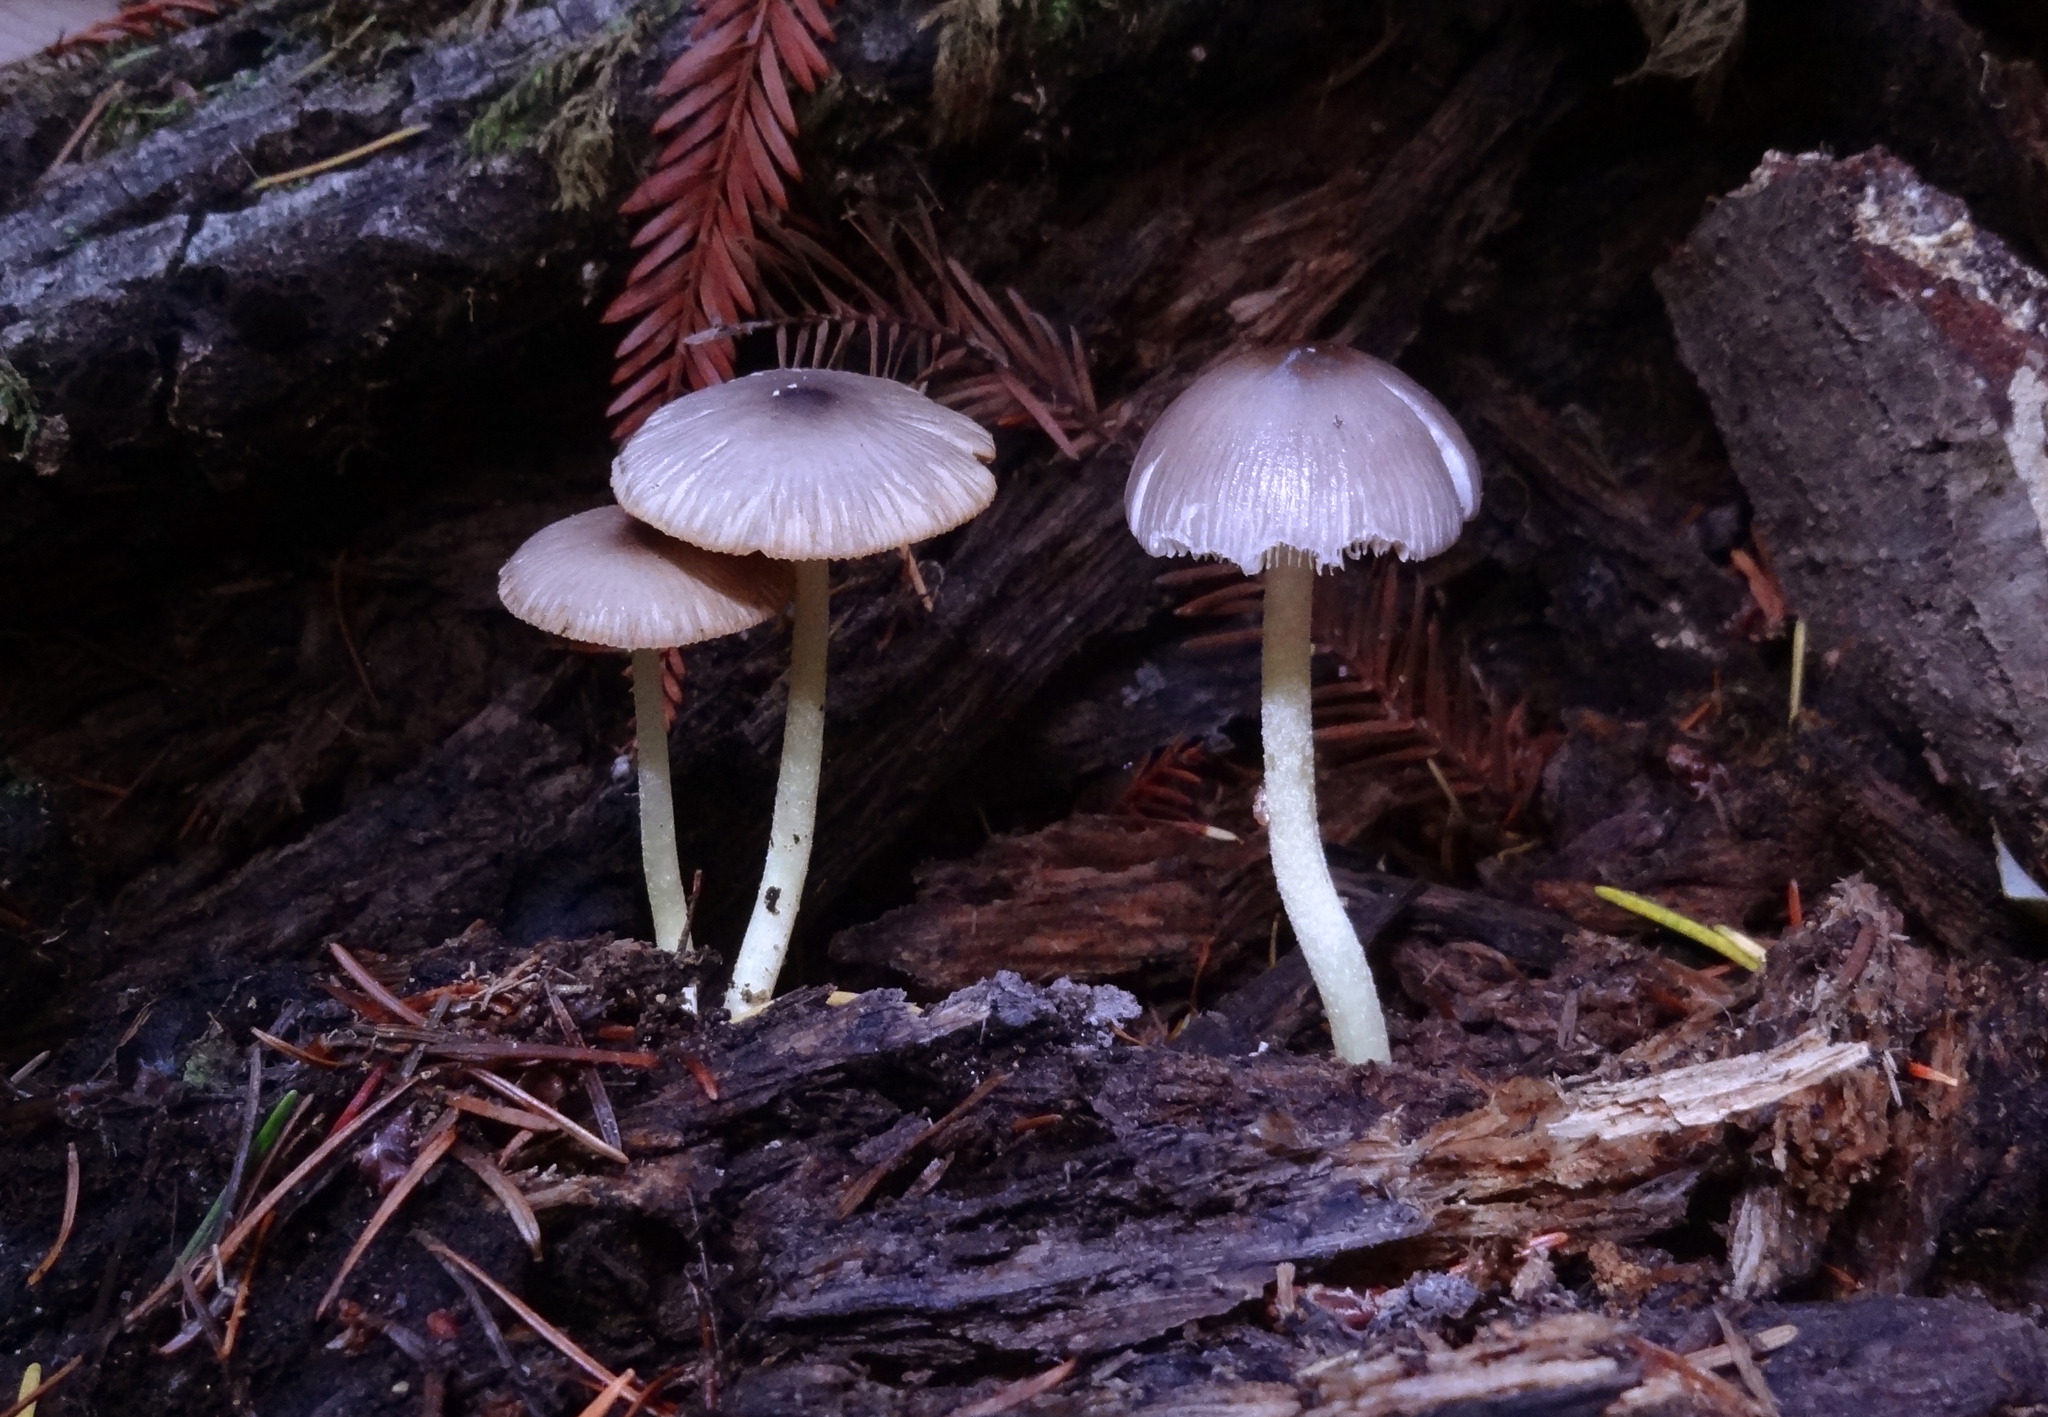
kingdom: Fungi
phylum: Basidiomycota
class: Agaricomycetes
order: Agaricales
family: Bolbitiaceae
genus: Bolbitius
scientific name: Bolbitius reticulatus
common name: Netted fieldcap
